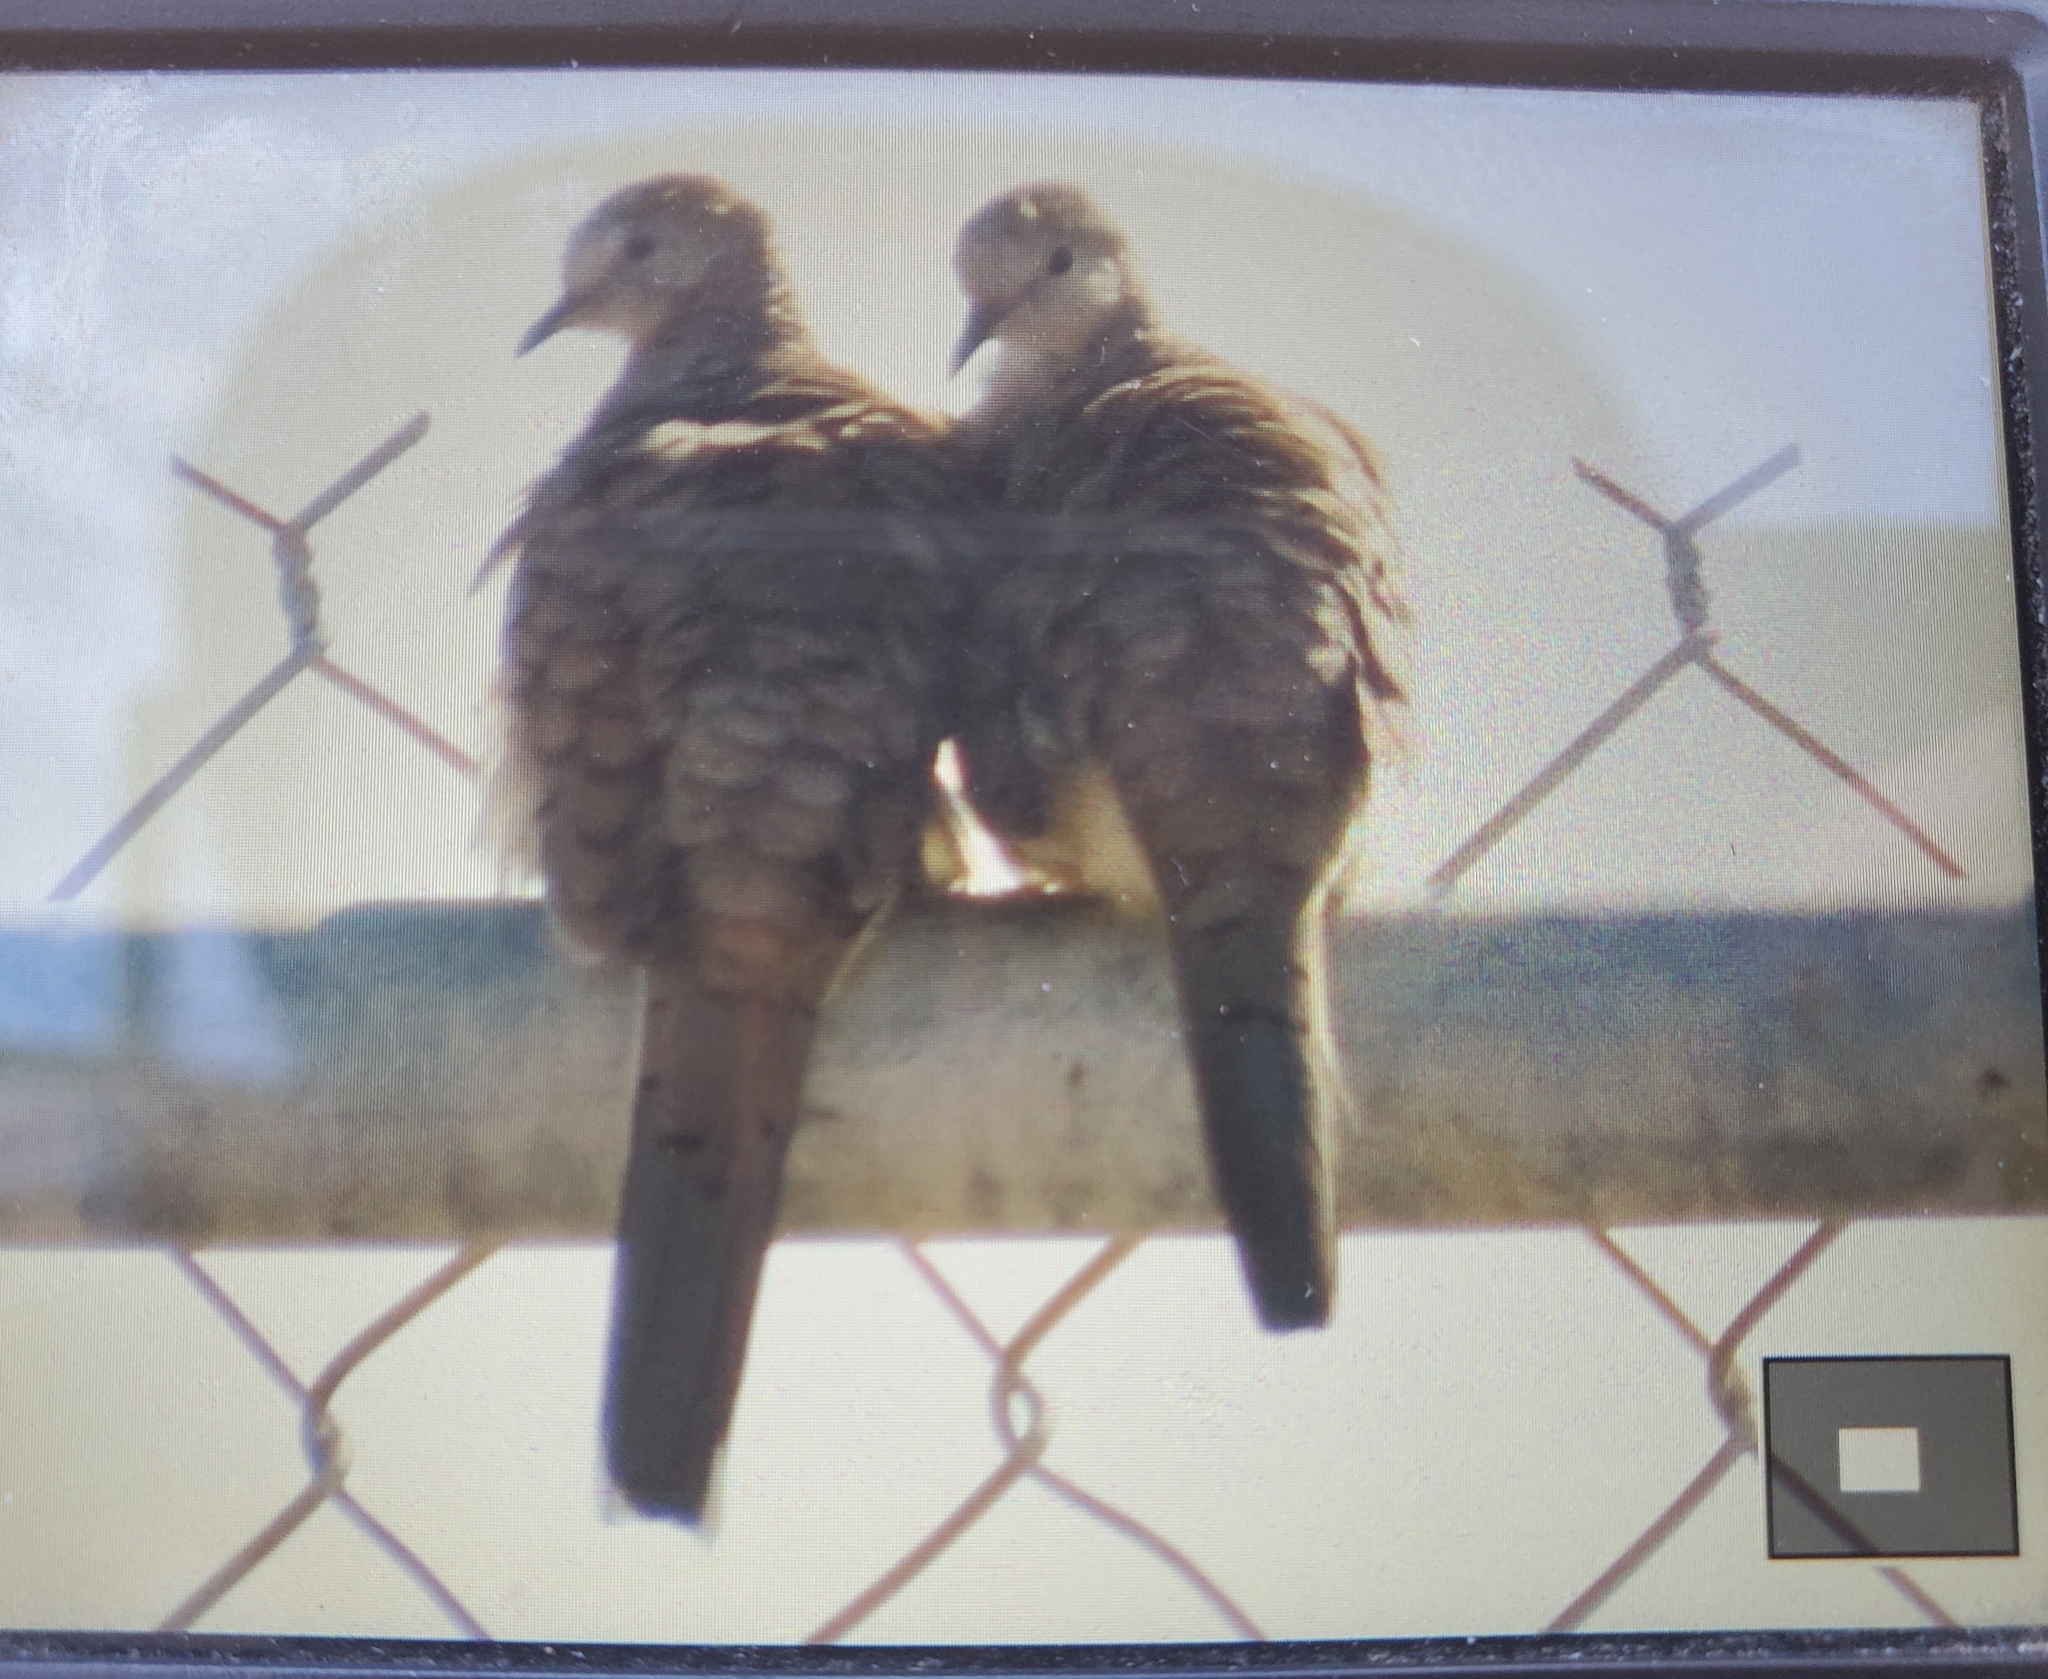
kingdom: Animalia
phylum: Chordata
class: Aves
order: Columbiformes
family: Columbidae
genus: Columbina
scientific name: Columbina inca
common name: Inca dove
